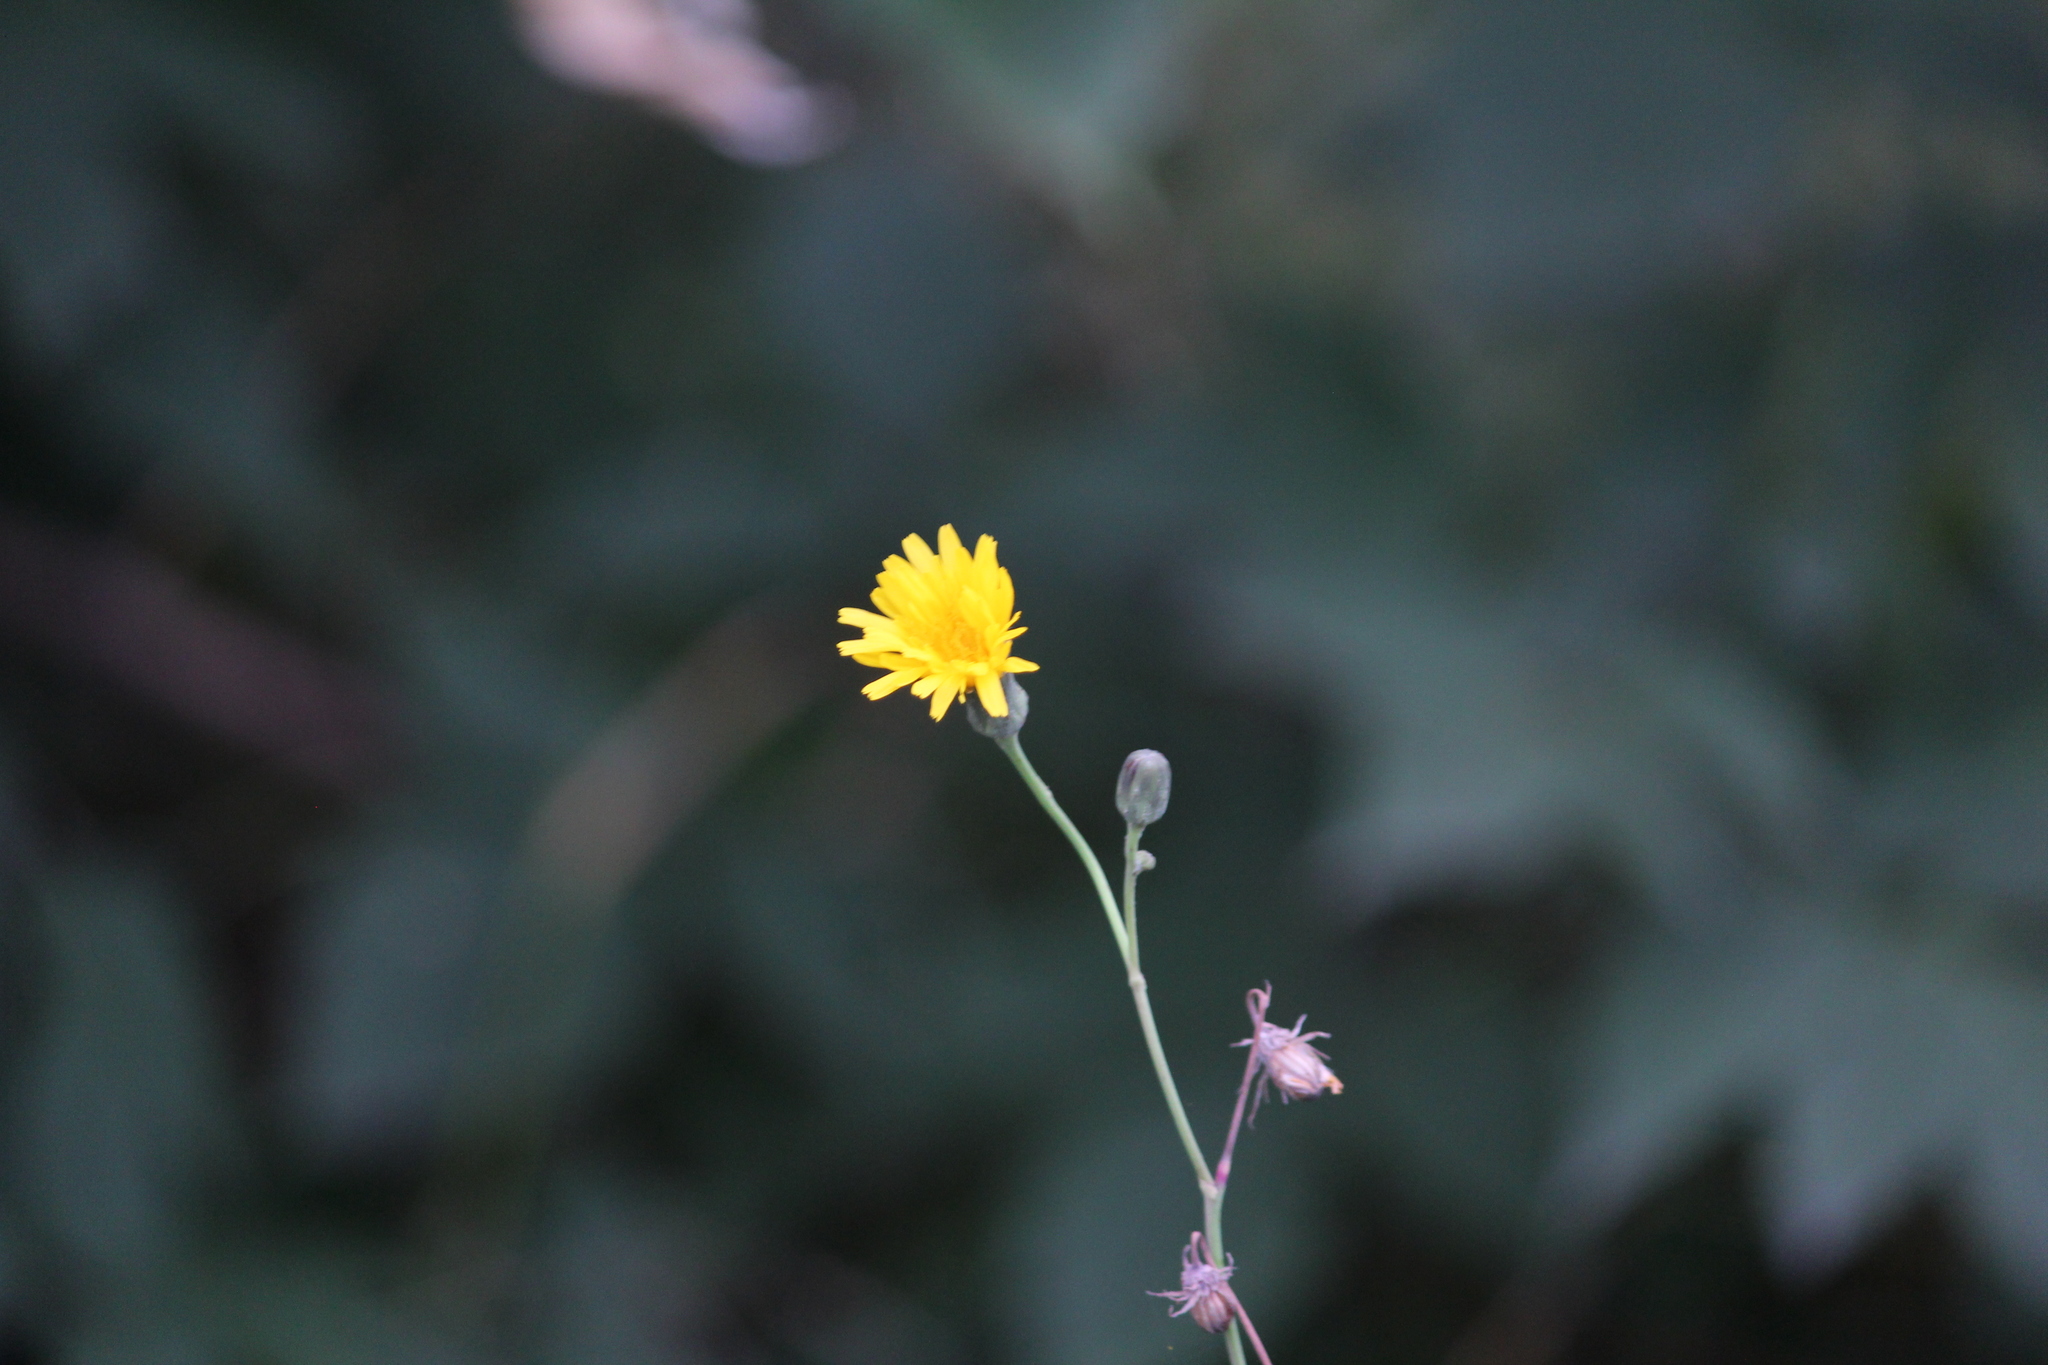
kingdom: Plantae
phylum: Tracheophyta
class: Magnoliopsida
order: Asterales
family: Asteraceae
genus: Sonchus
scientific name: Sonchus arvensis
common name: Perennial sow-thistle
